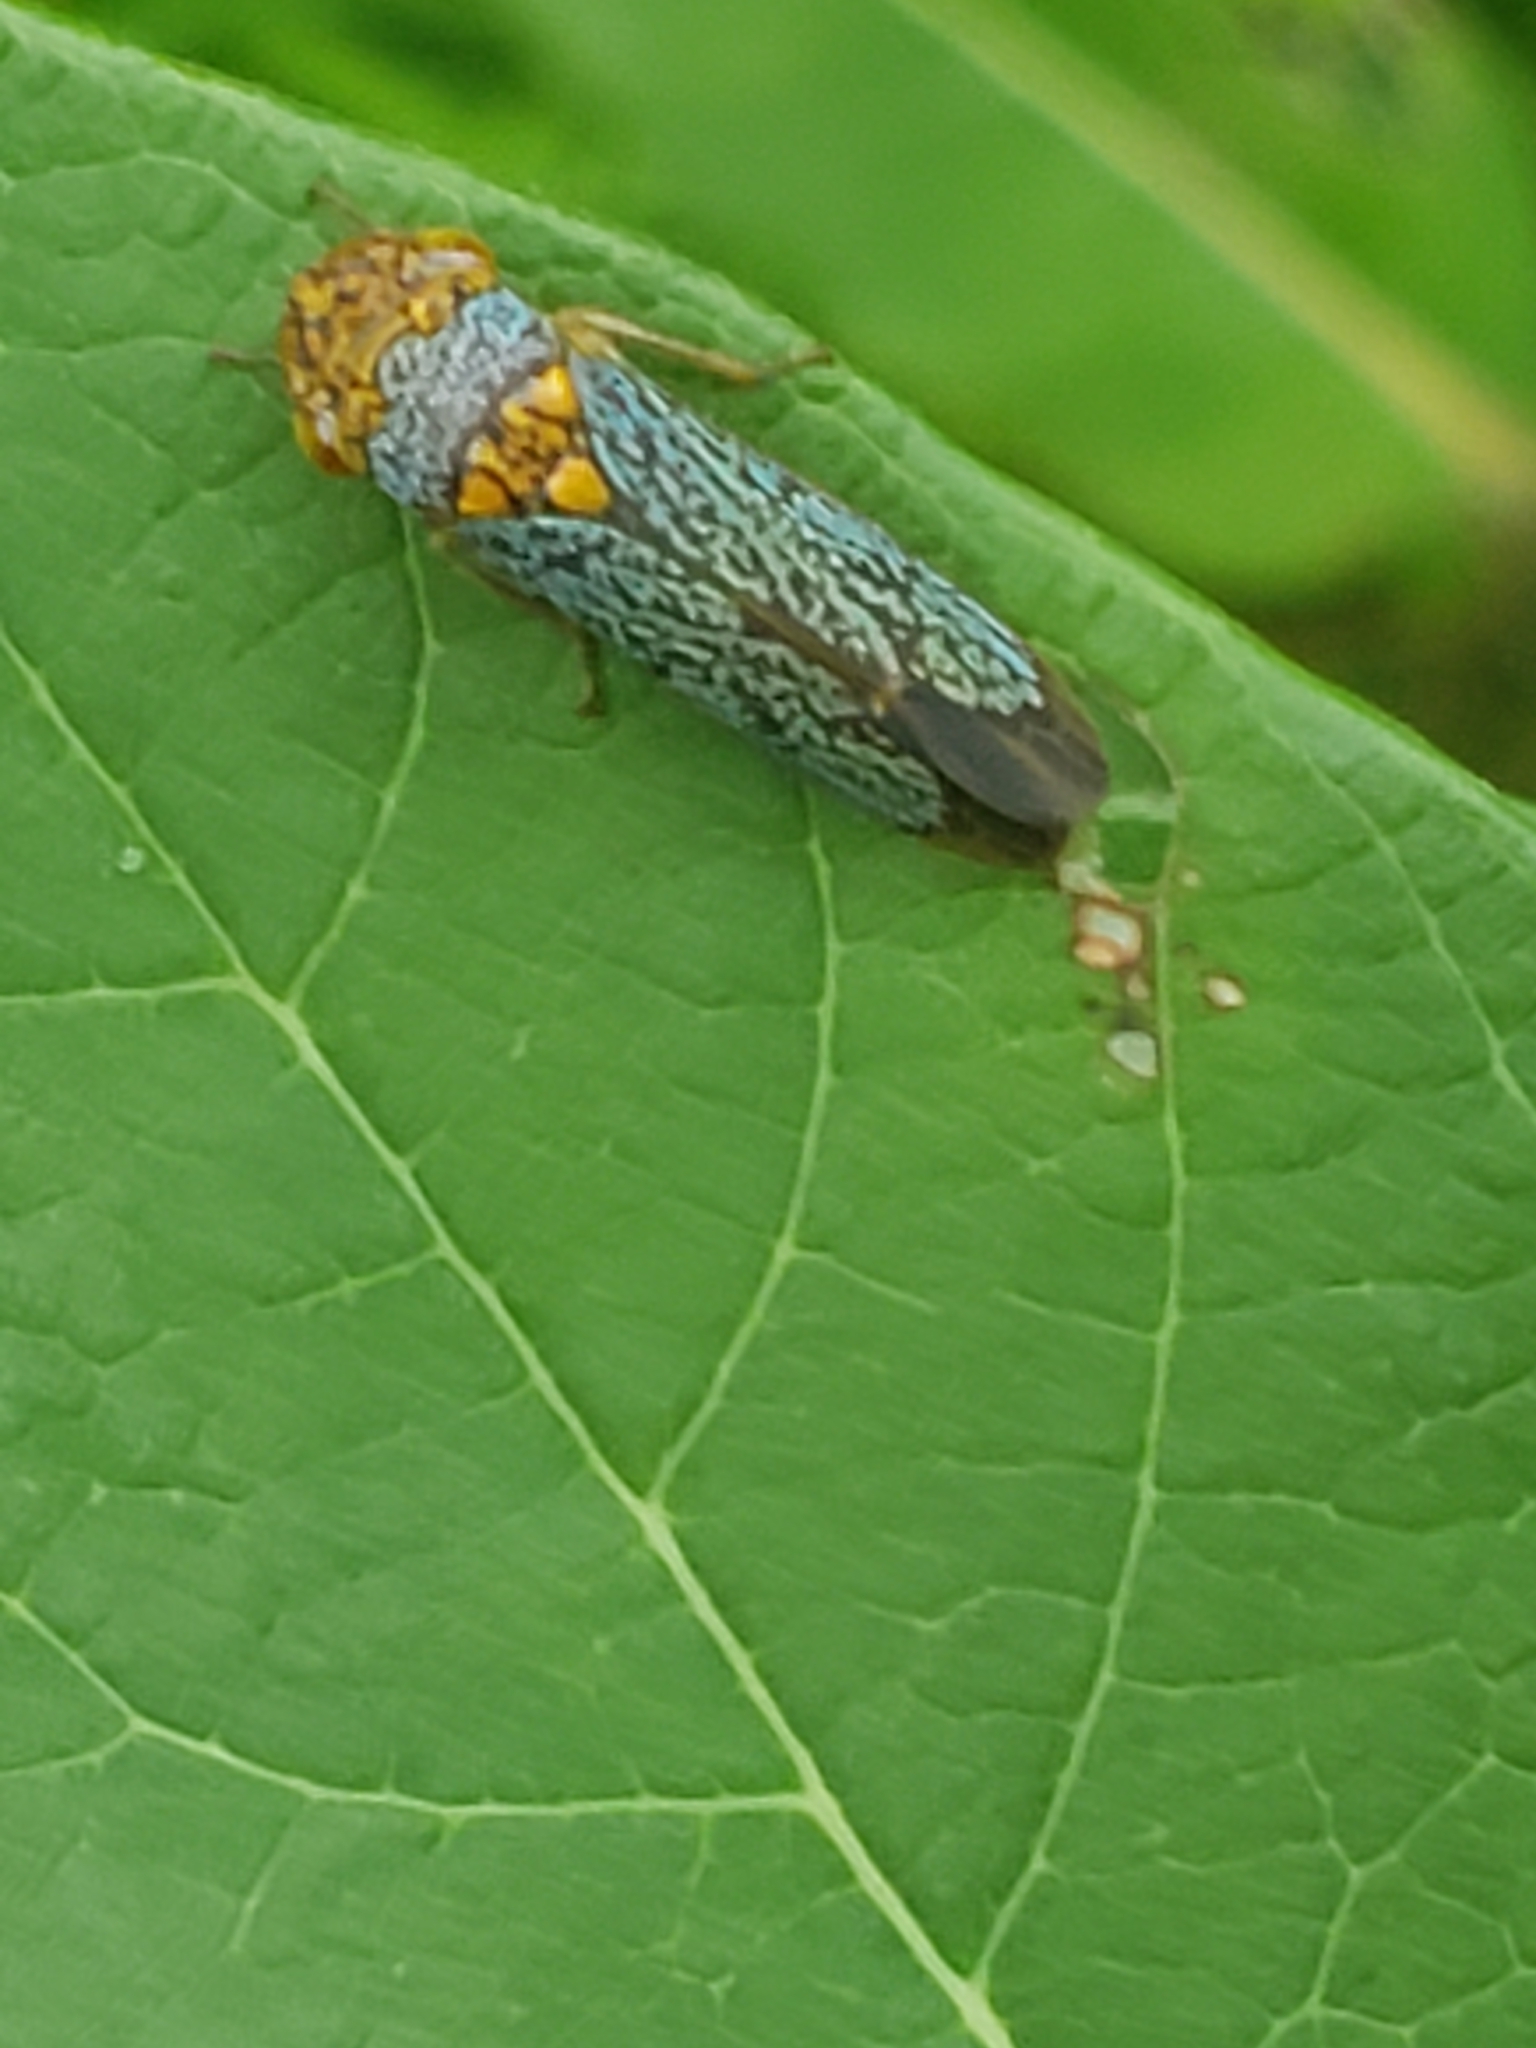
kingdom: Animalia
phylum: Arthropoda
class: Insecta
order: Hemiptera
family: Cicadellidae
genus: Oncometopia
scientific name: Oncometopia orbona
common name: Broad-headed sharpshooter
